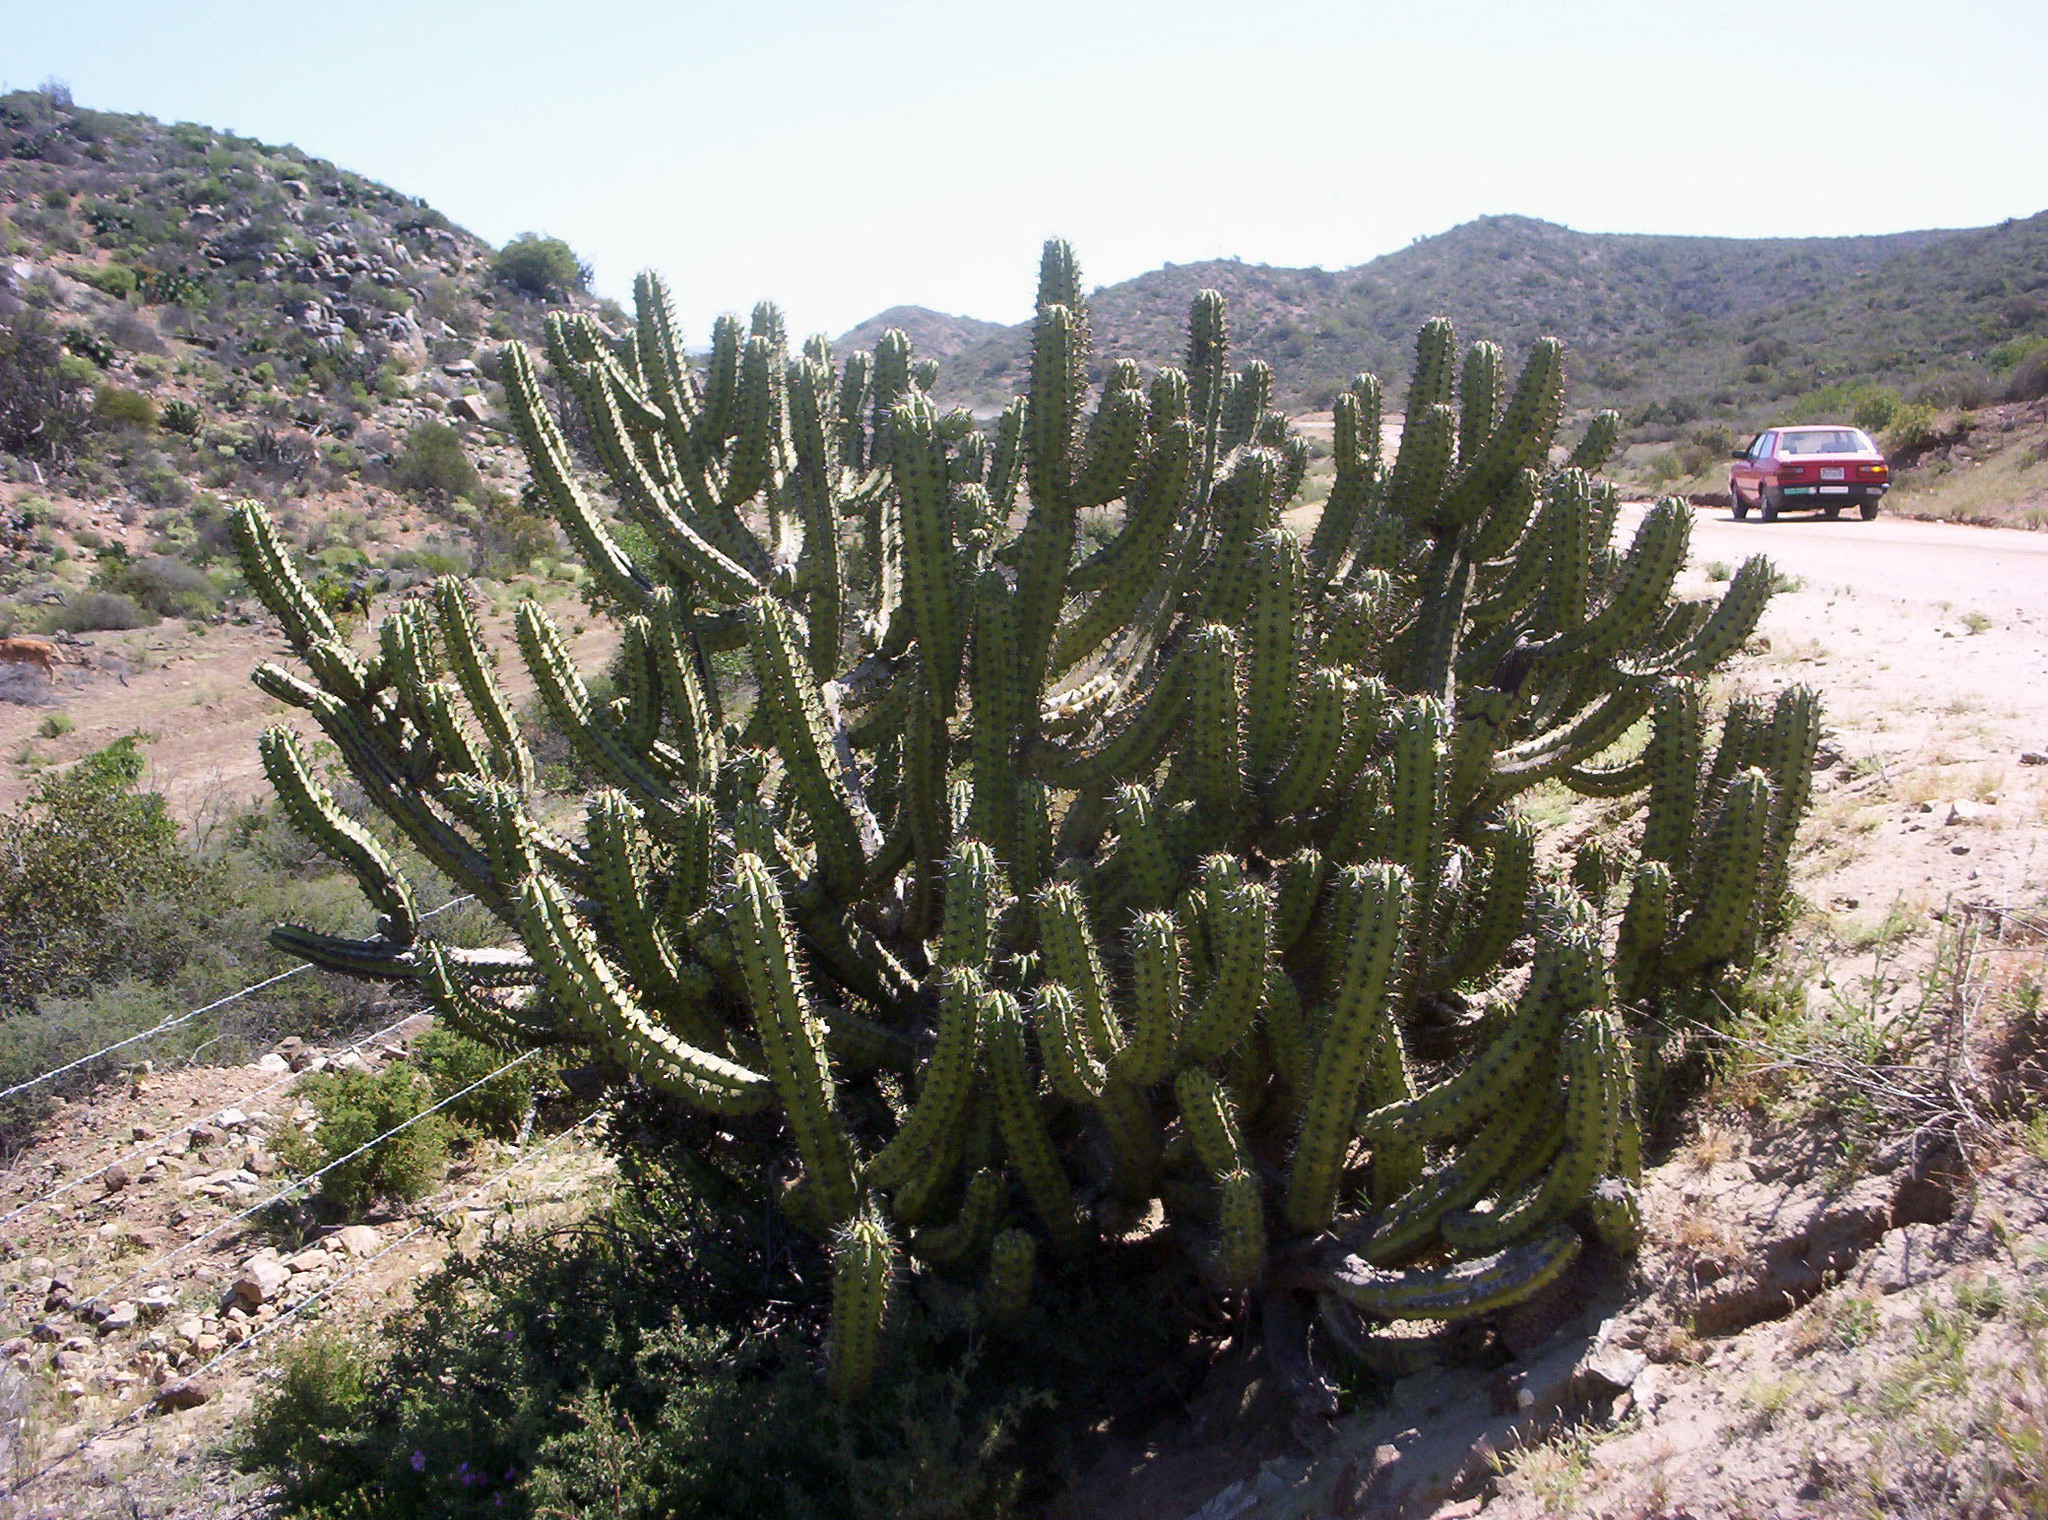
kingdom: Plantae
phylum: Tracheophyta
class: Magnoliopsida
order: Caryophyllales
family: Cactaceae
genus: Myrtillocactus
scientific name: Myrtillocactus cochal
